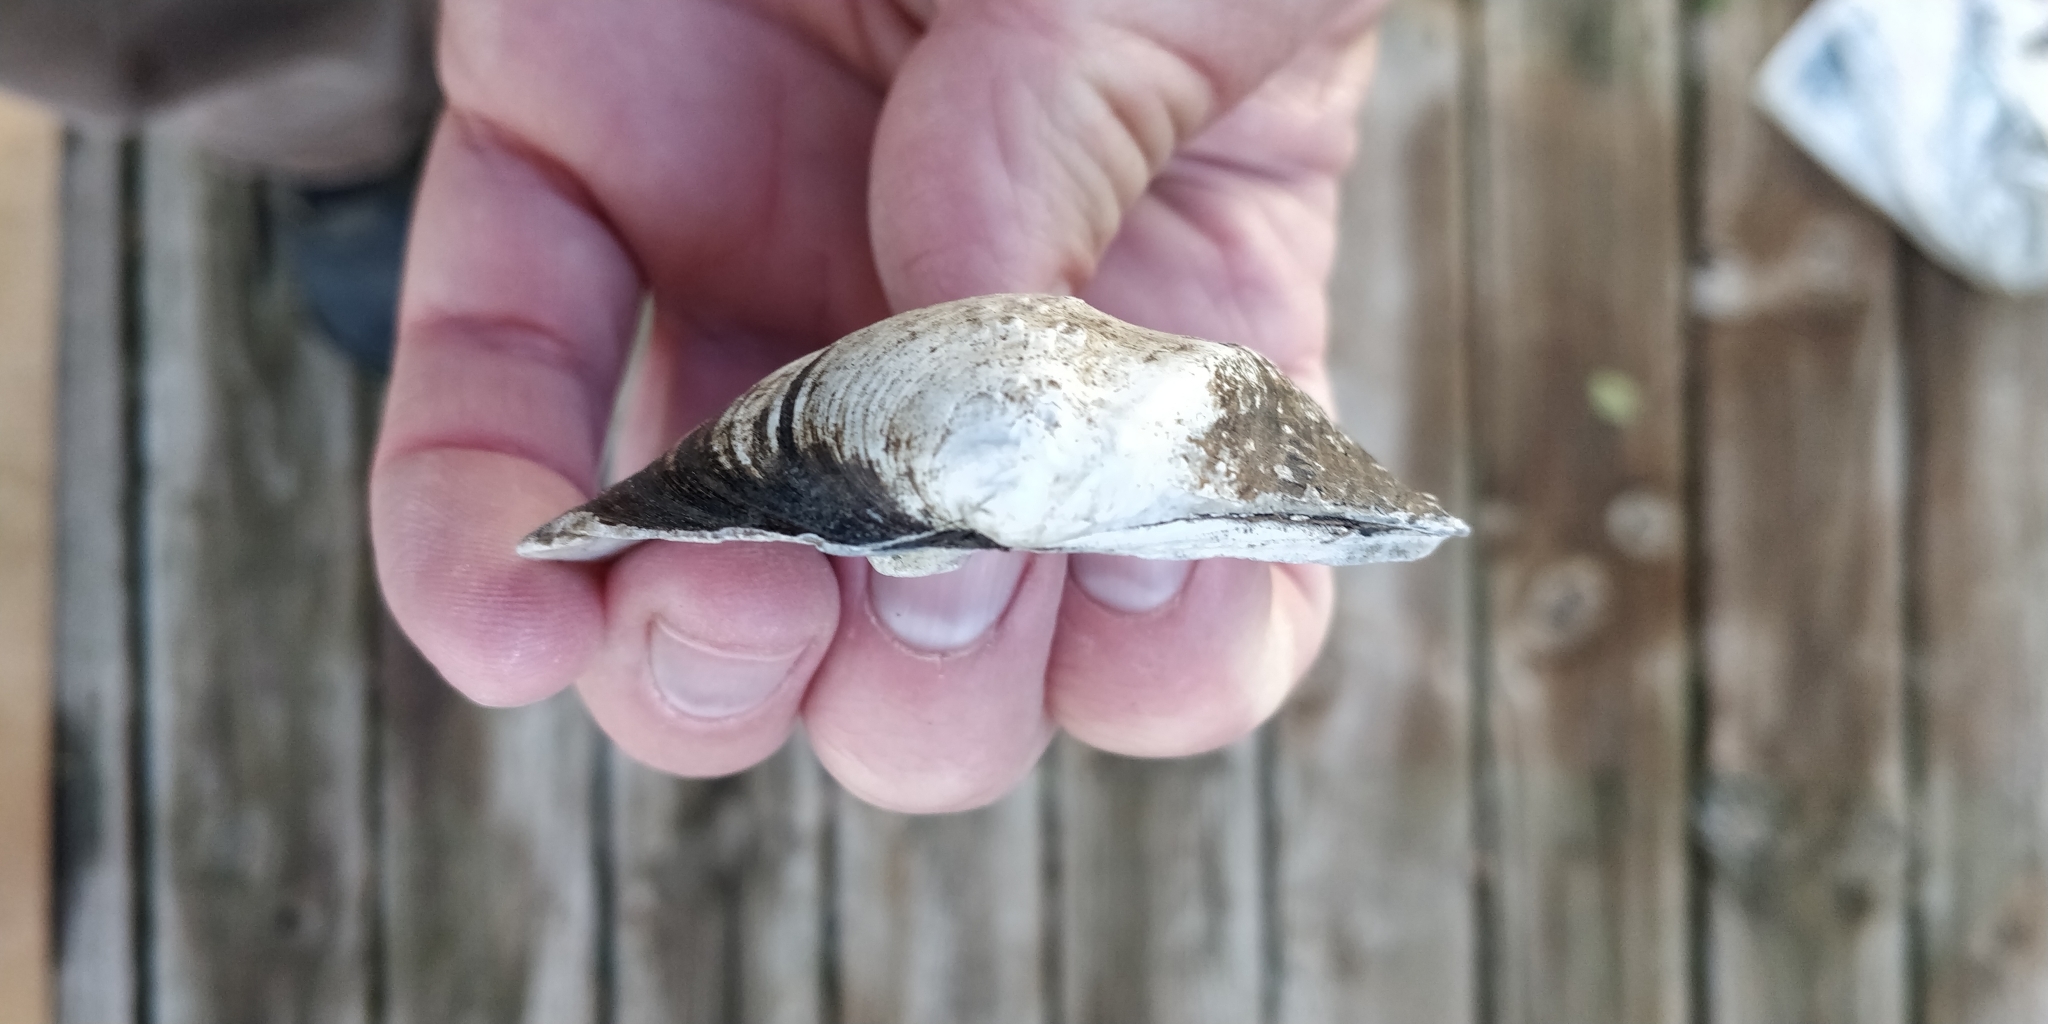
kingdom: Animalia
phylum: Mollusca
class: Bivalvia
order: Unionida
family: Unionidae
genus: Quadrula
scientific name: Quadrula quadrula
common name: Mapleleaf
